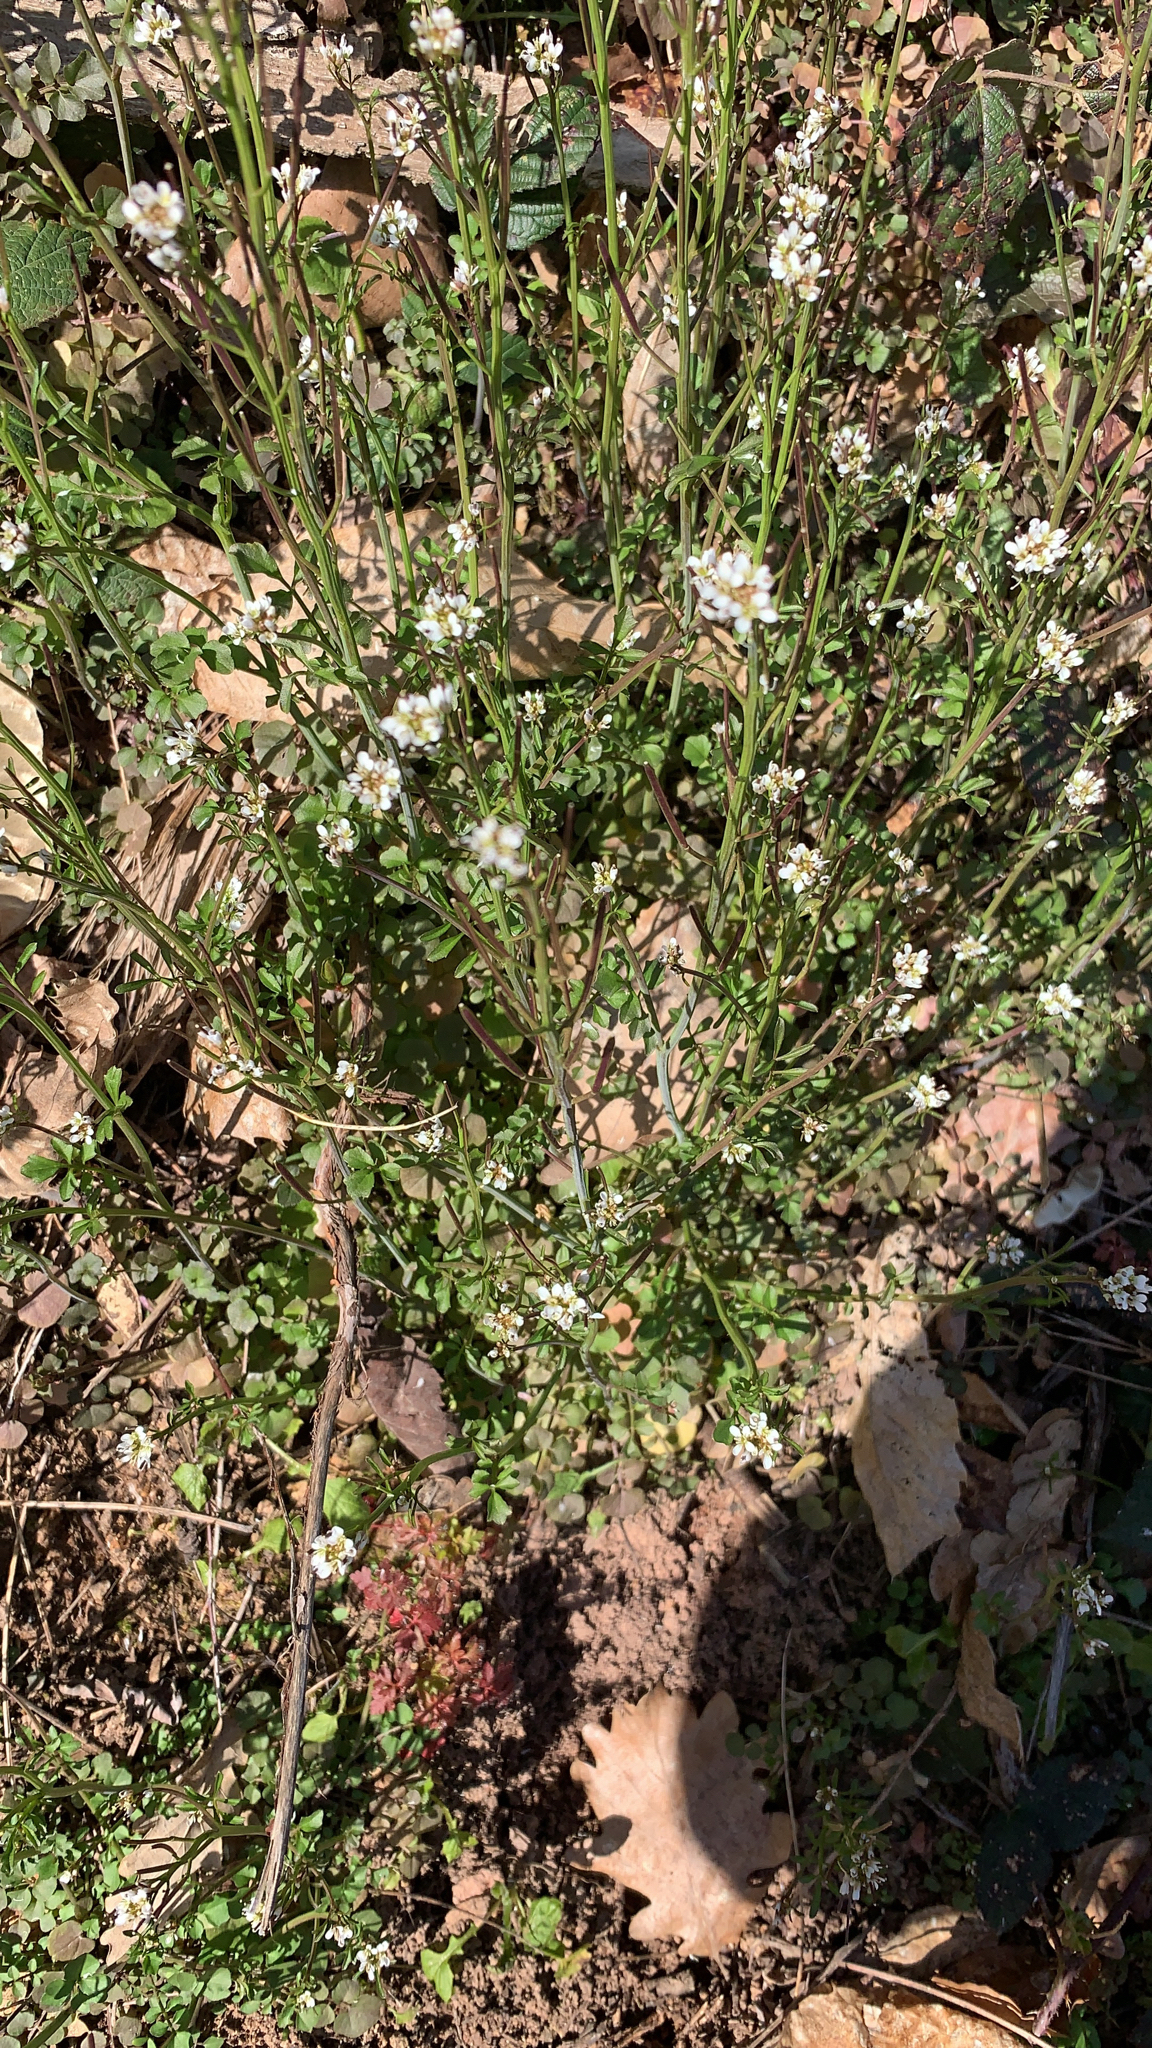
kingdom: Plantae
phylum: Tracheophyta
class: Magnoliopsida
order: Brassicales
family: Brassicaceae
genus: Cardamine
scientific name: Cardamine hirsuta
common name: Hairy bittercress
